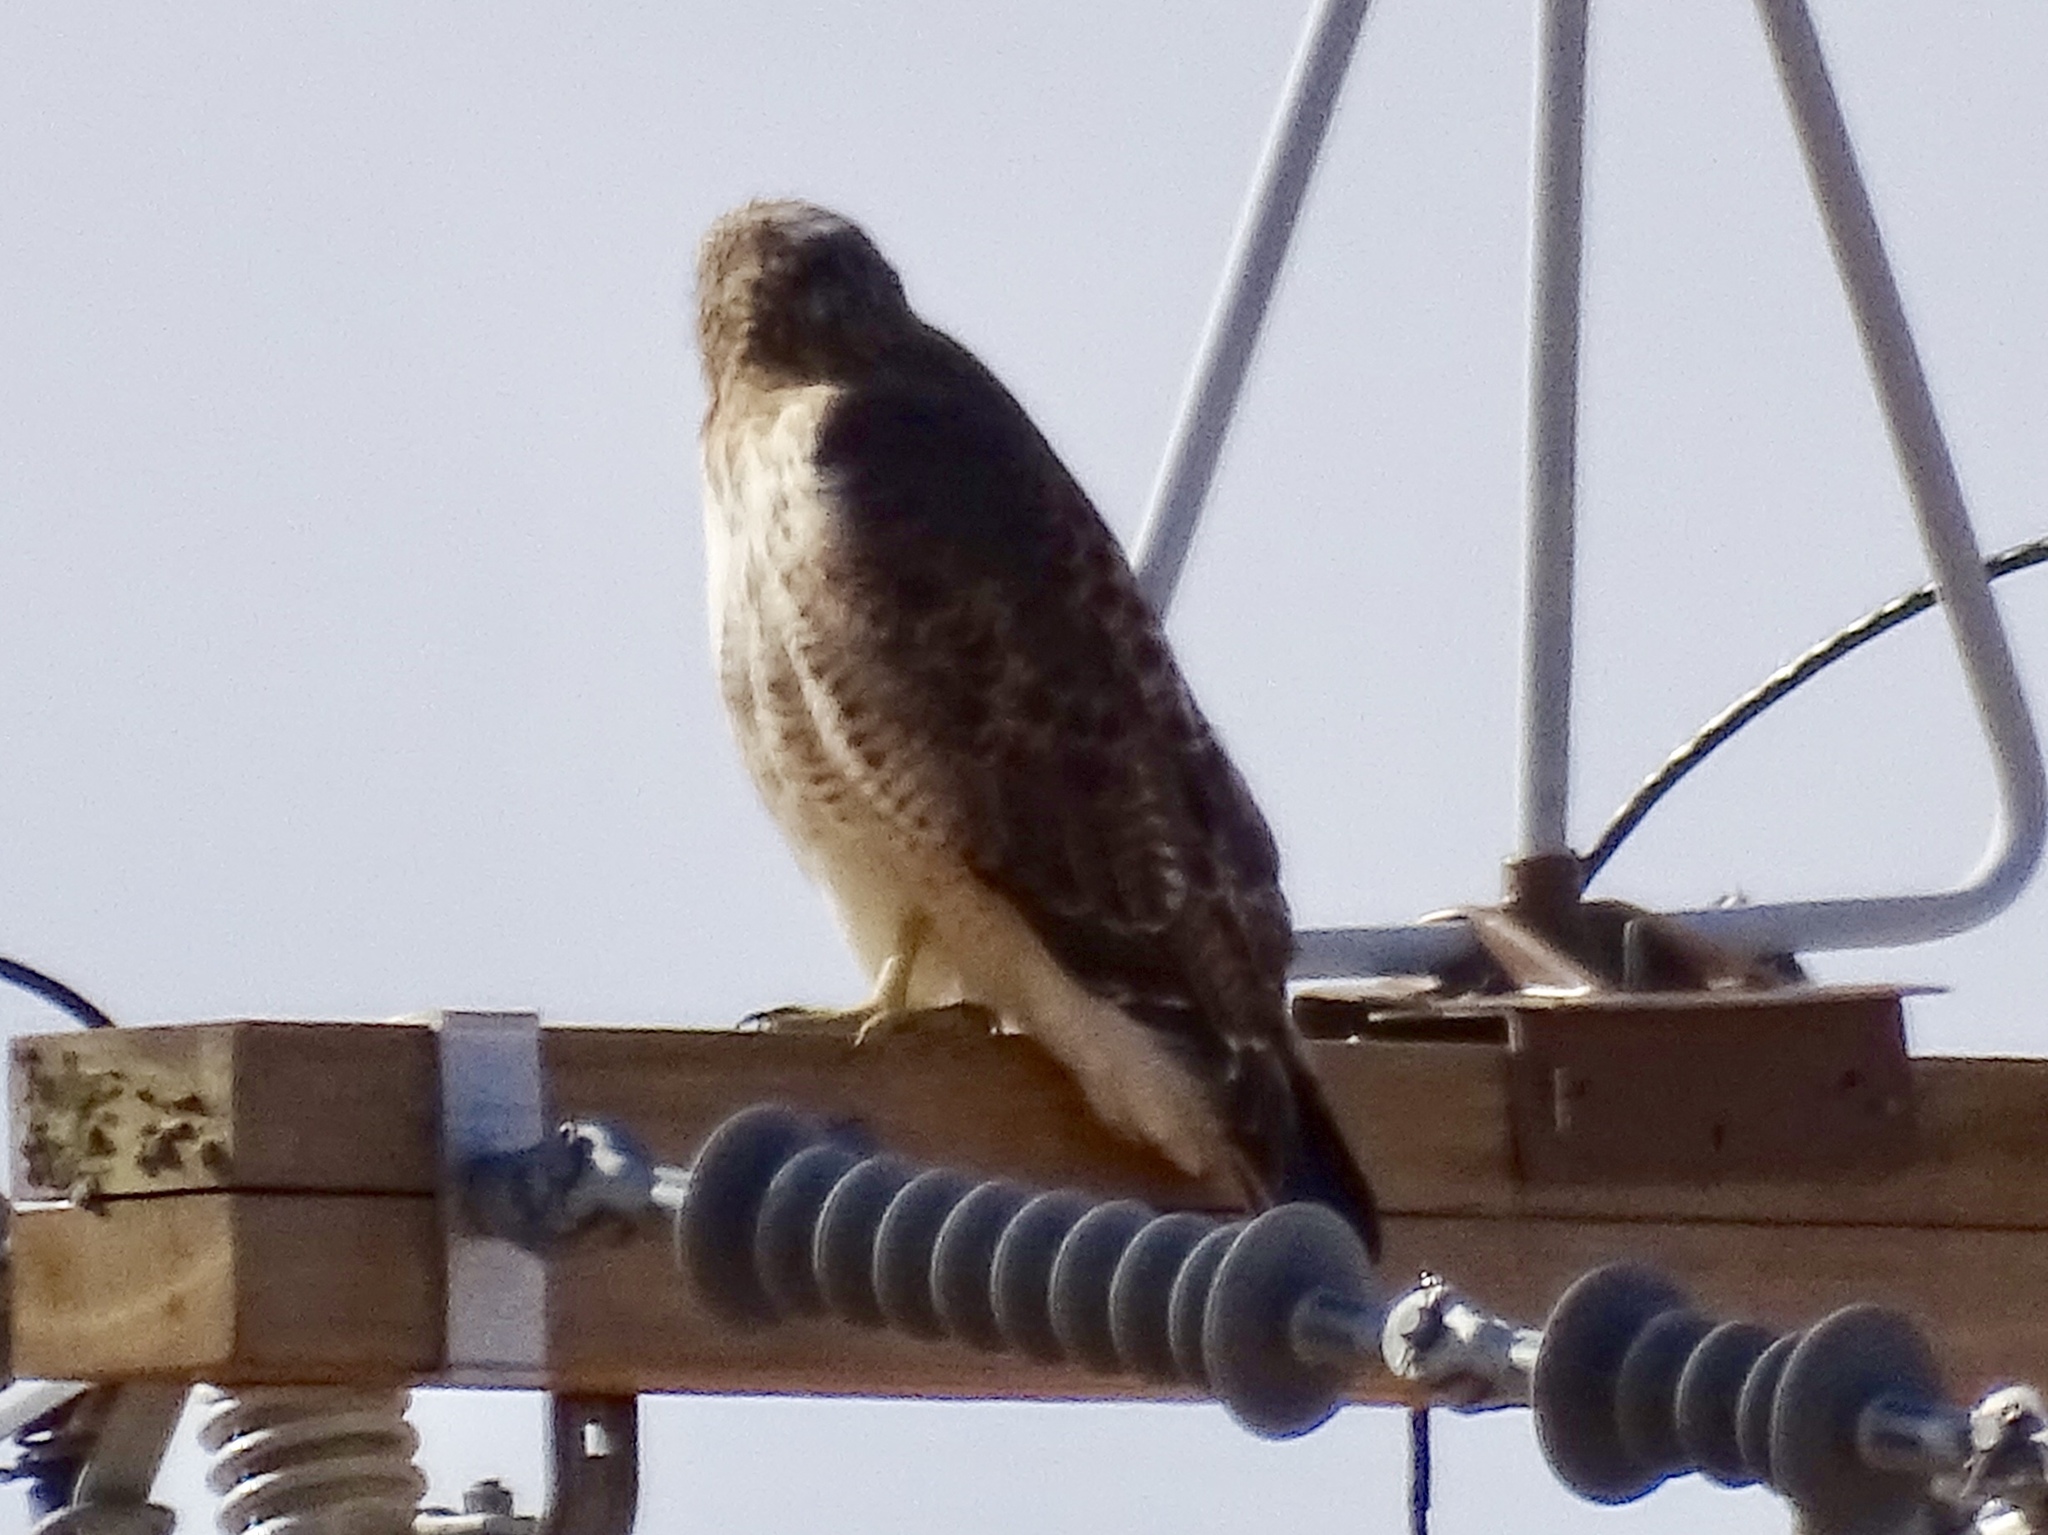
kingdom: Animalia
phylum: Chordata
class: Aves
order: Accipitriformes
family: Accipitridae
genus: Buteo
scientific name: Buteo jamaicensis
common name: Red-tailed hawk
